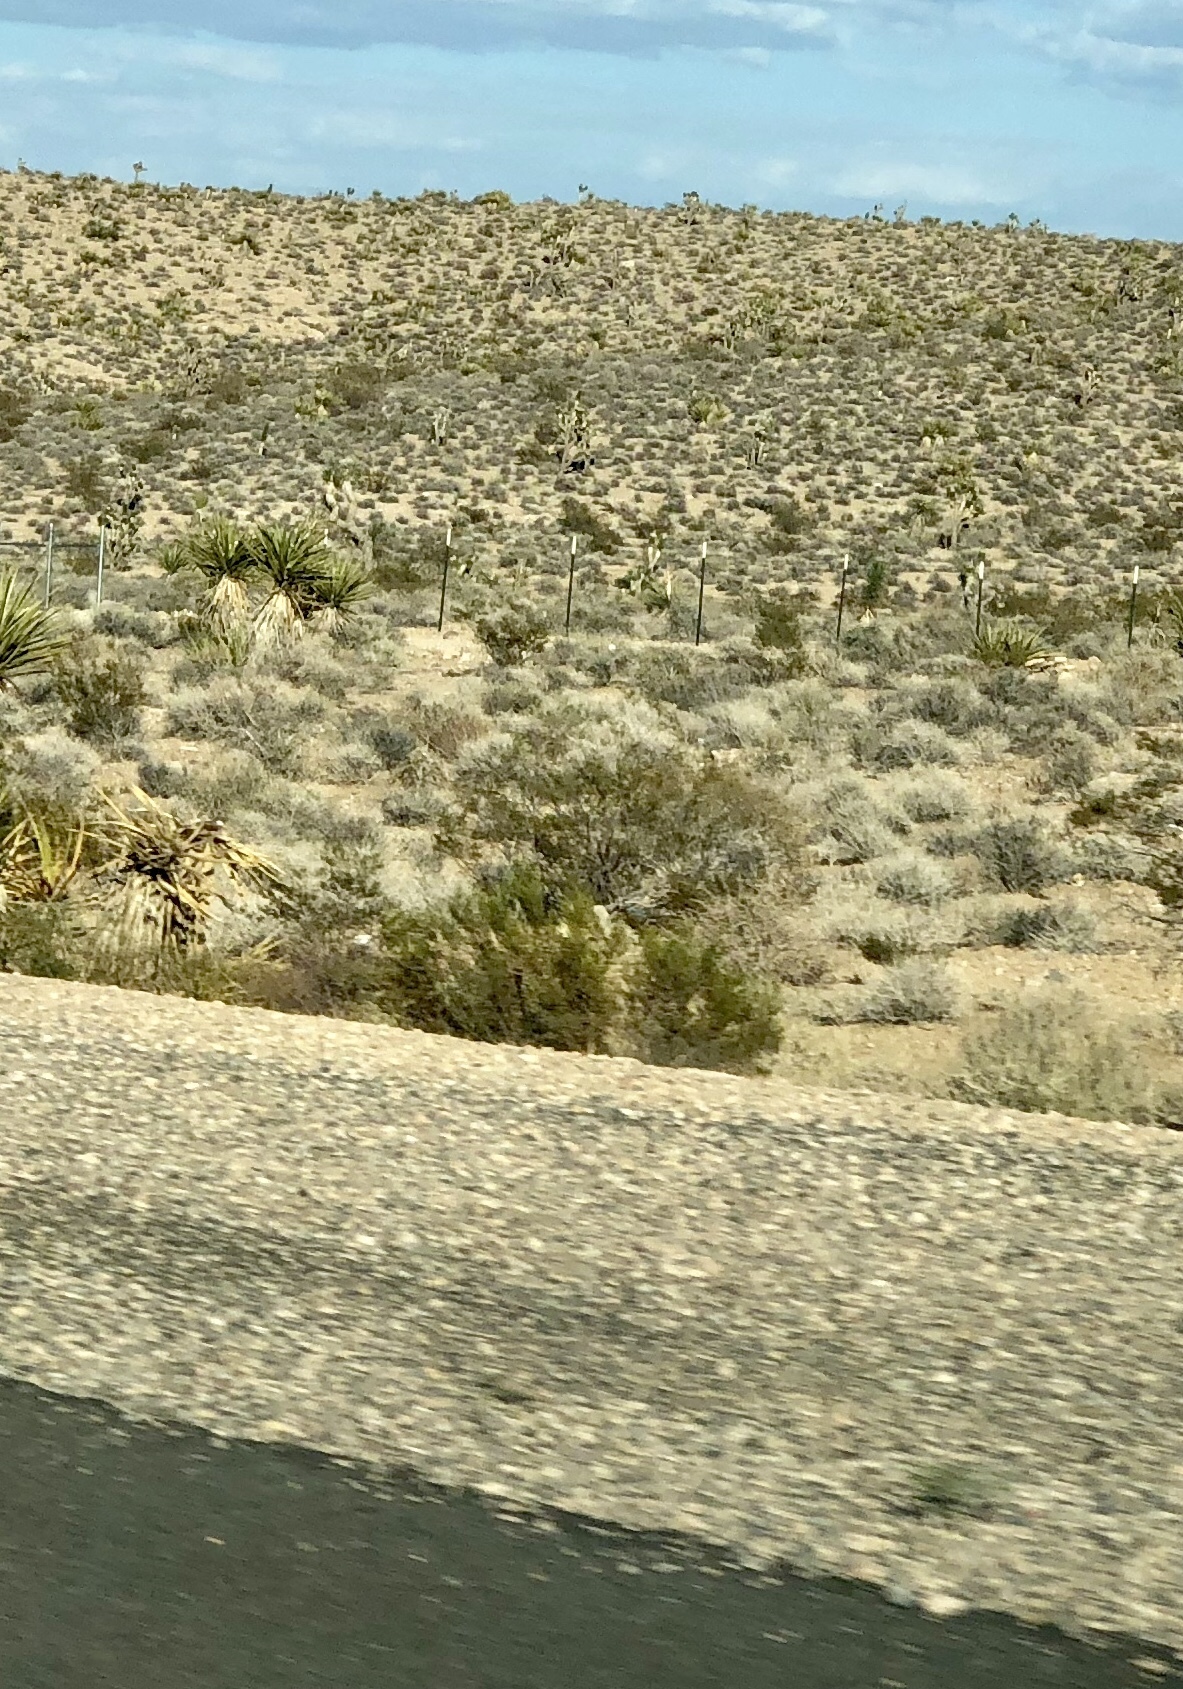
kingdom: Plantae
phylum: Tracheophyta
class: Magnoliopsida
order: Zygophyllales
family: Zygophyllaceae
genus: Larrea
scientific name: Larrea tridentata
